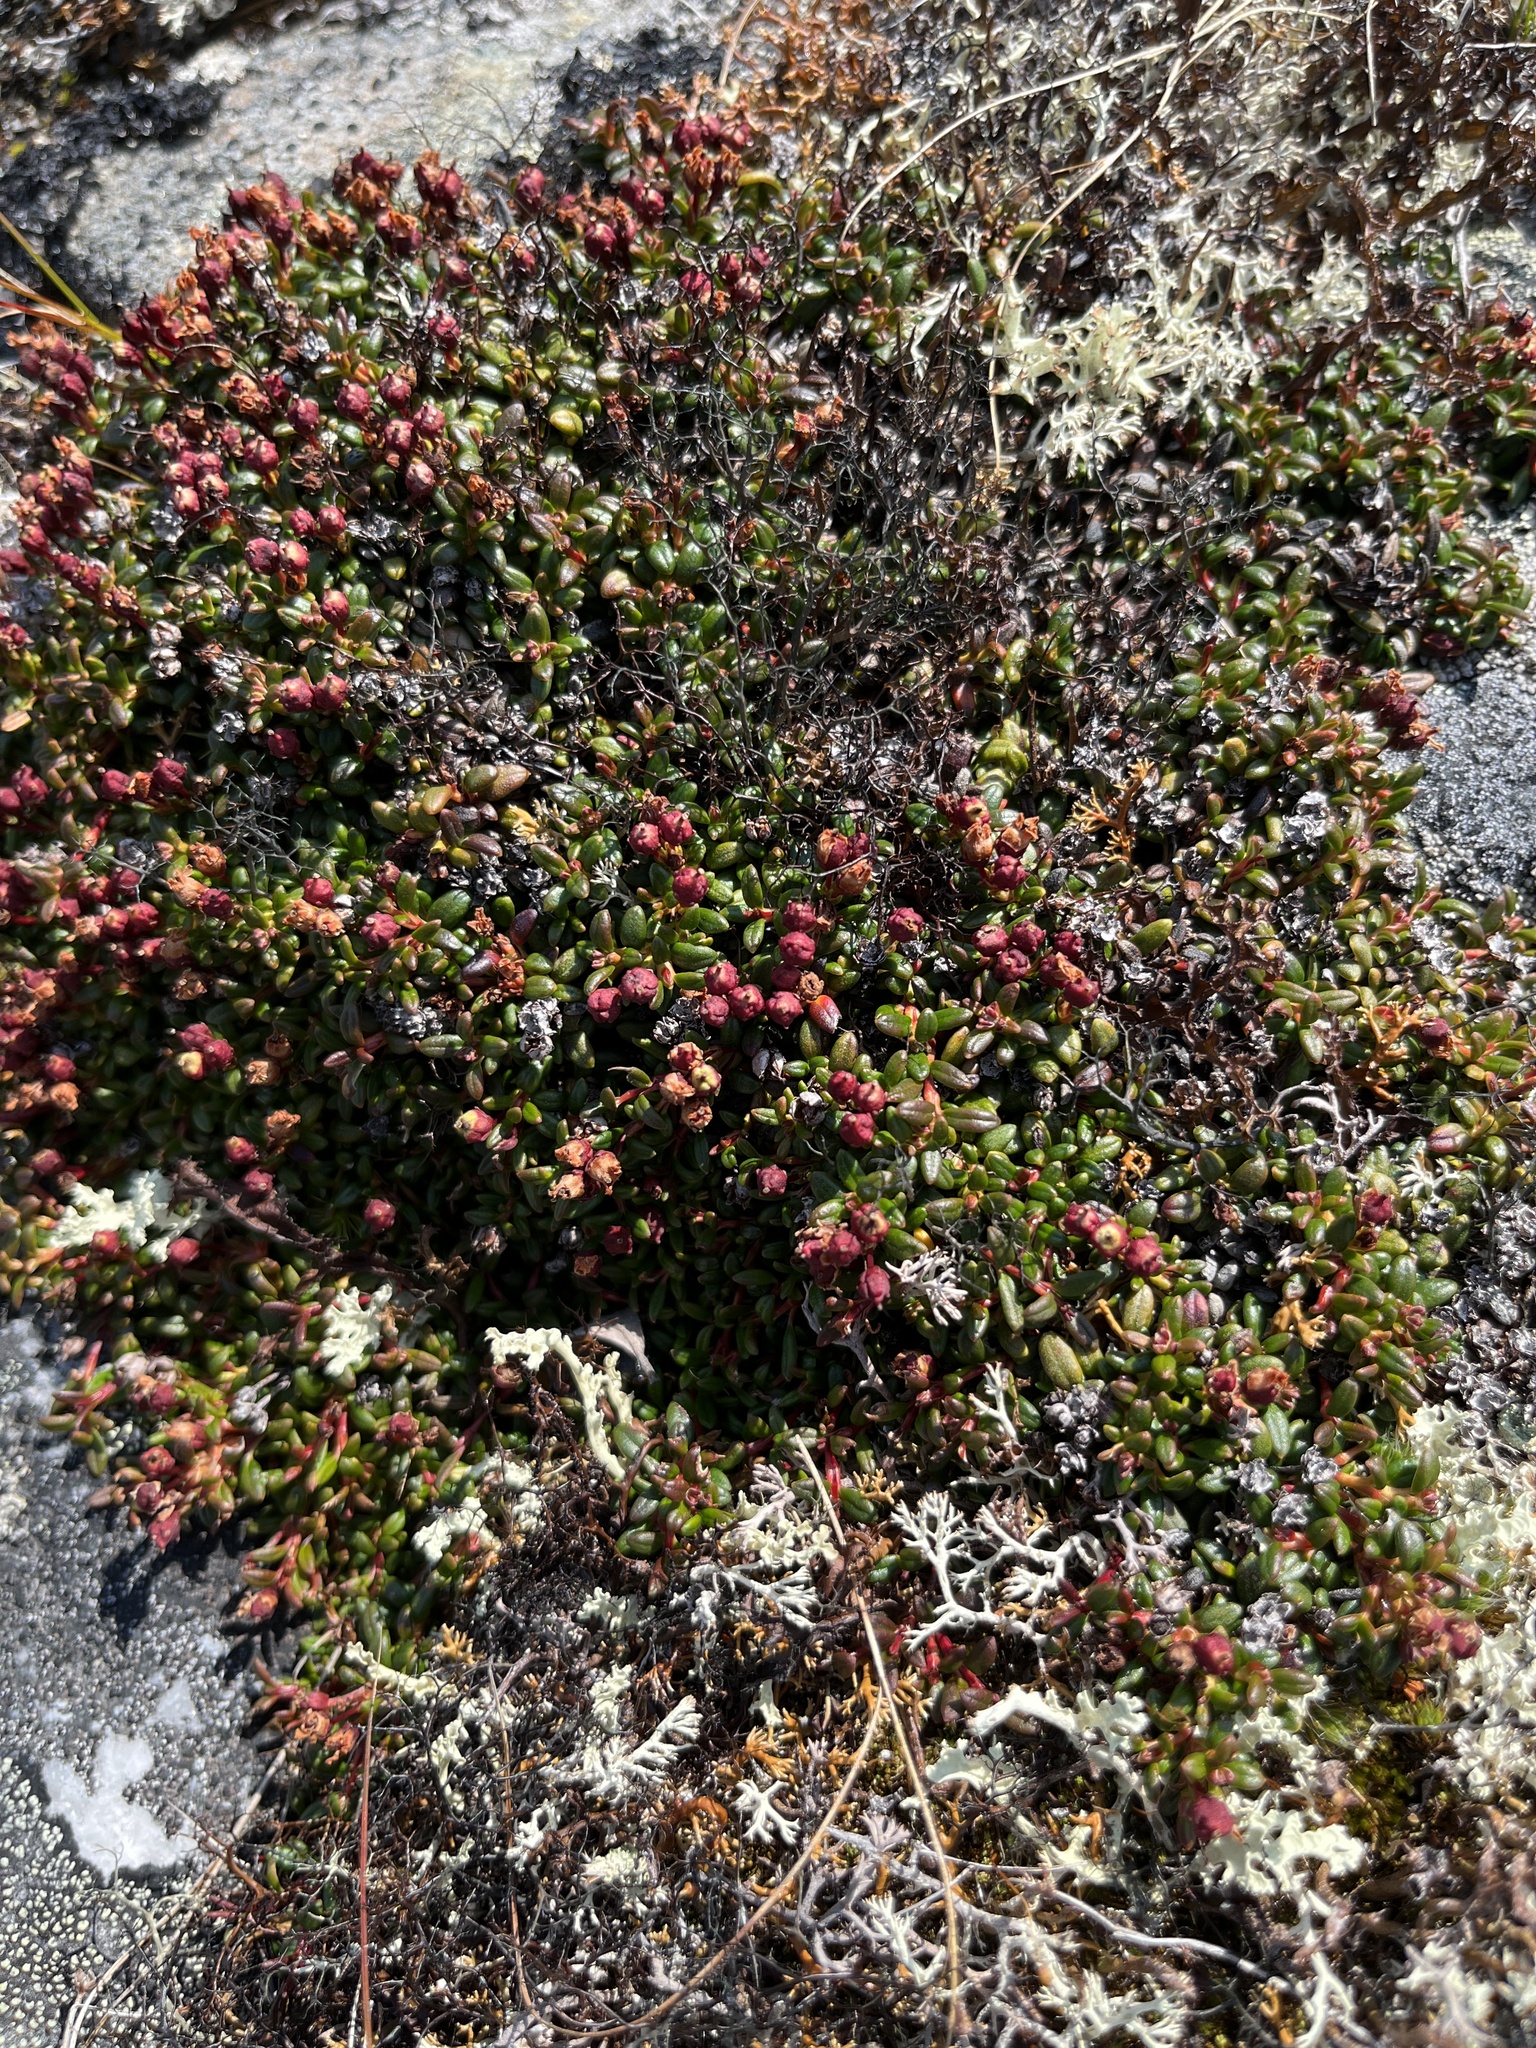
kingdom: Plantae
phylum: Tracheophyta
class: Magnoliopsida
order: Ericales
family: Ericaceae
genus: Kalmia
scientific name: Kalmia procumbens
